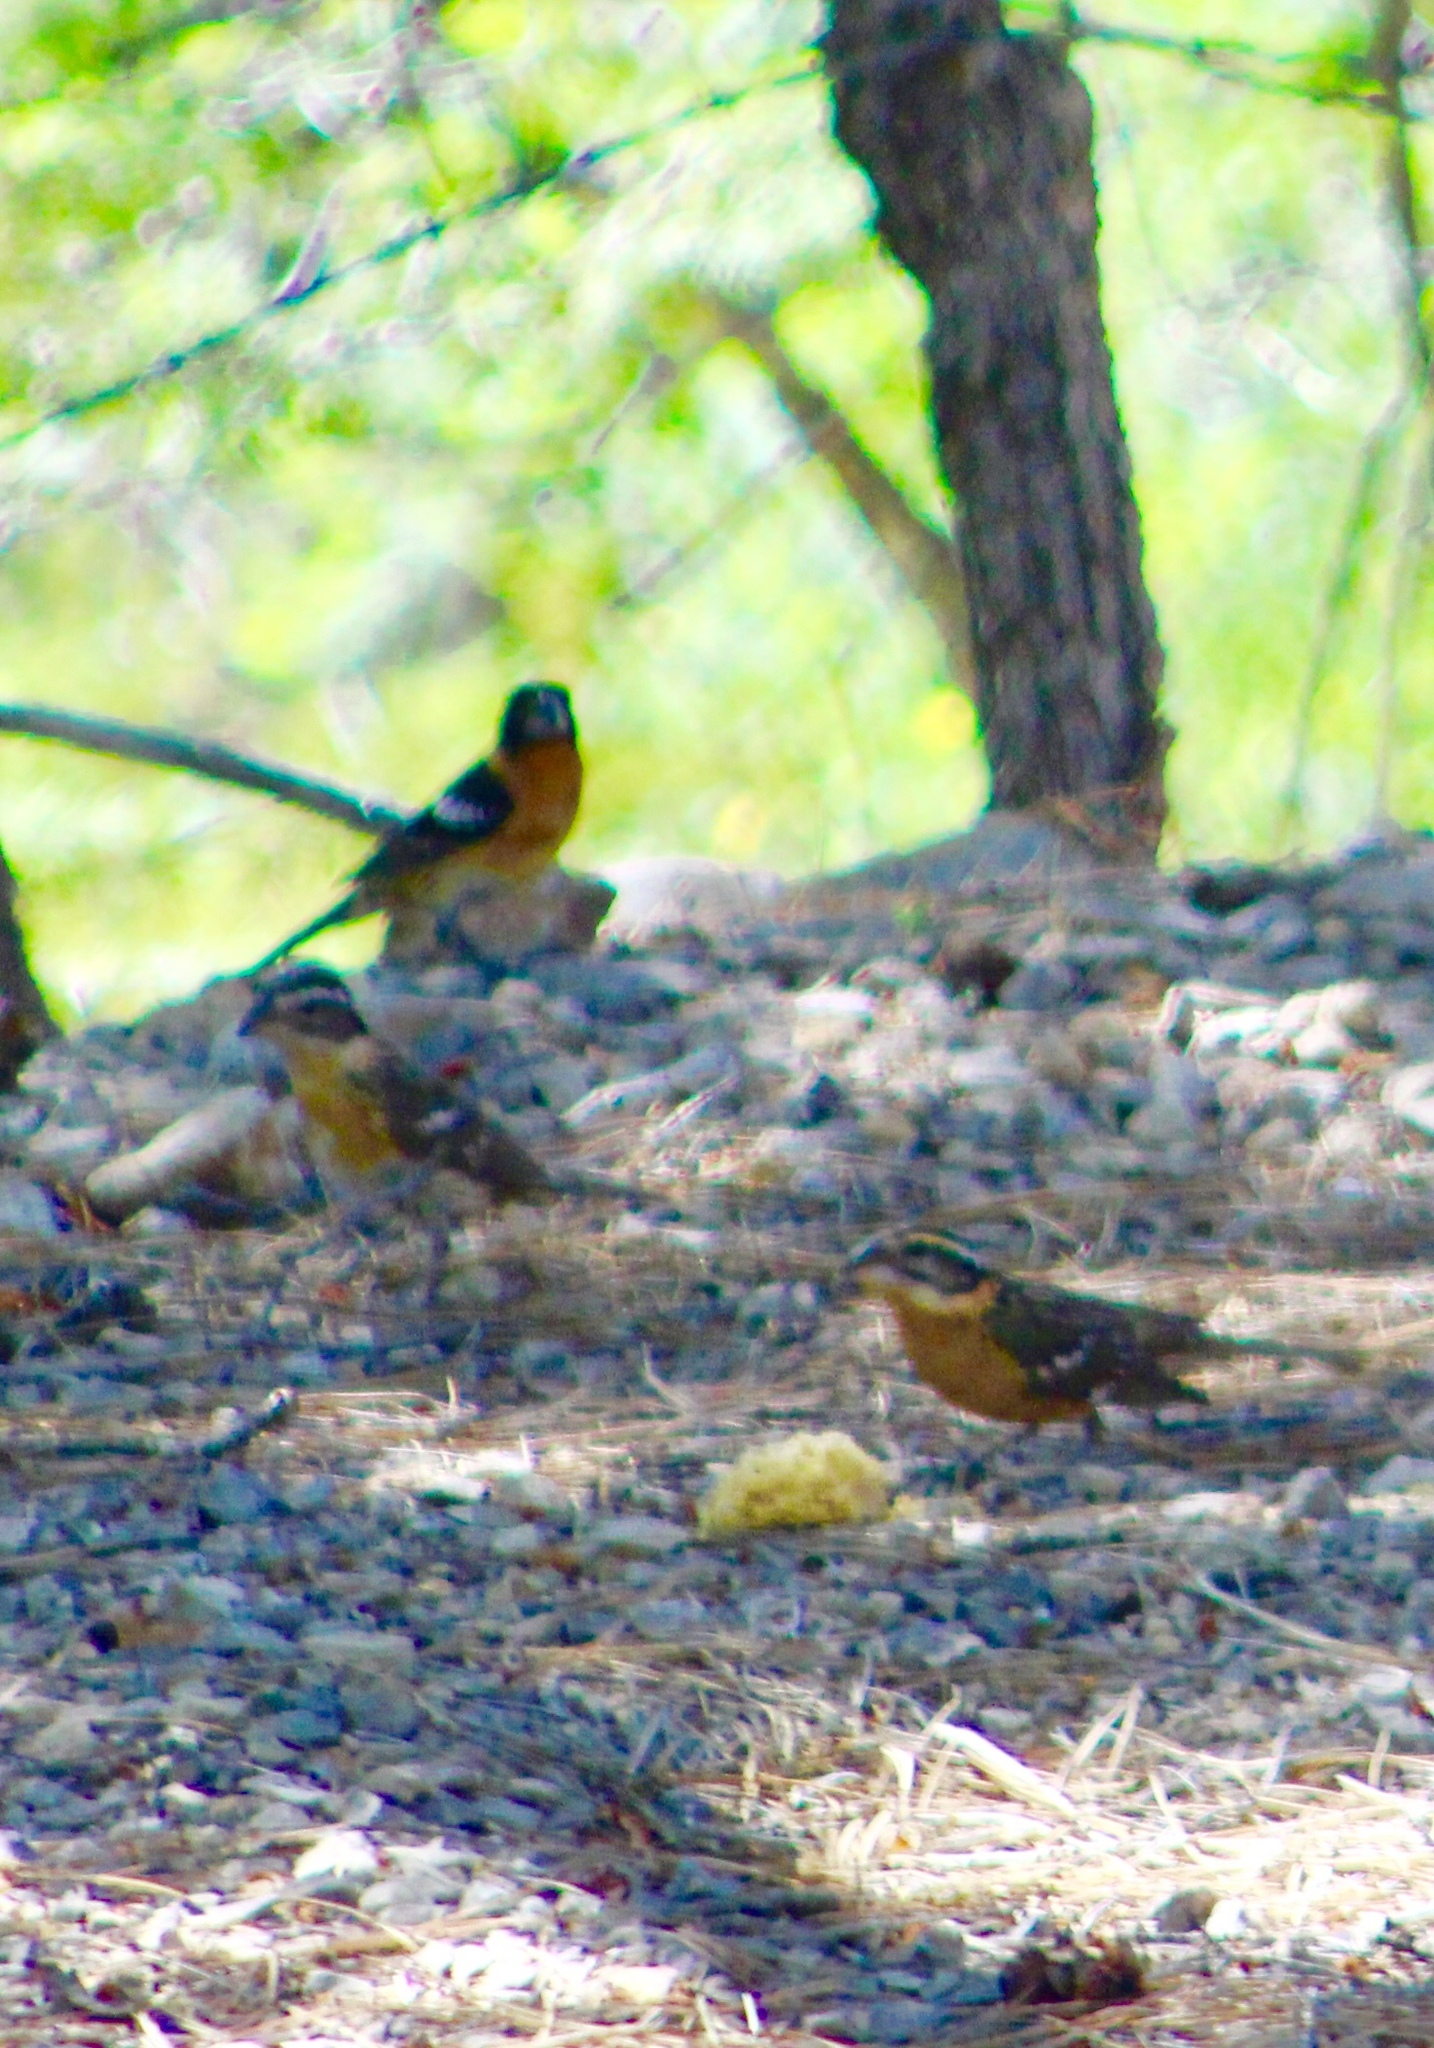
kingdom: Animalia
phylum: Chordata
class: Aves
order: Passeriformes
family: Cardinalidae
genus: Pheucticus
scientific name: Pheucticus melanocephalus
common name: Black-headed grosbeak
